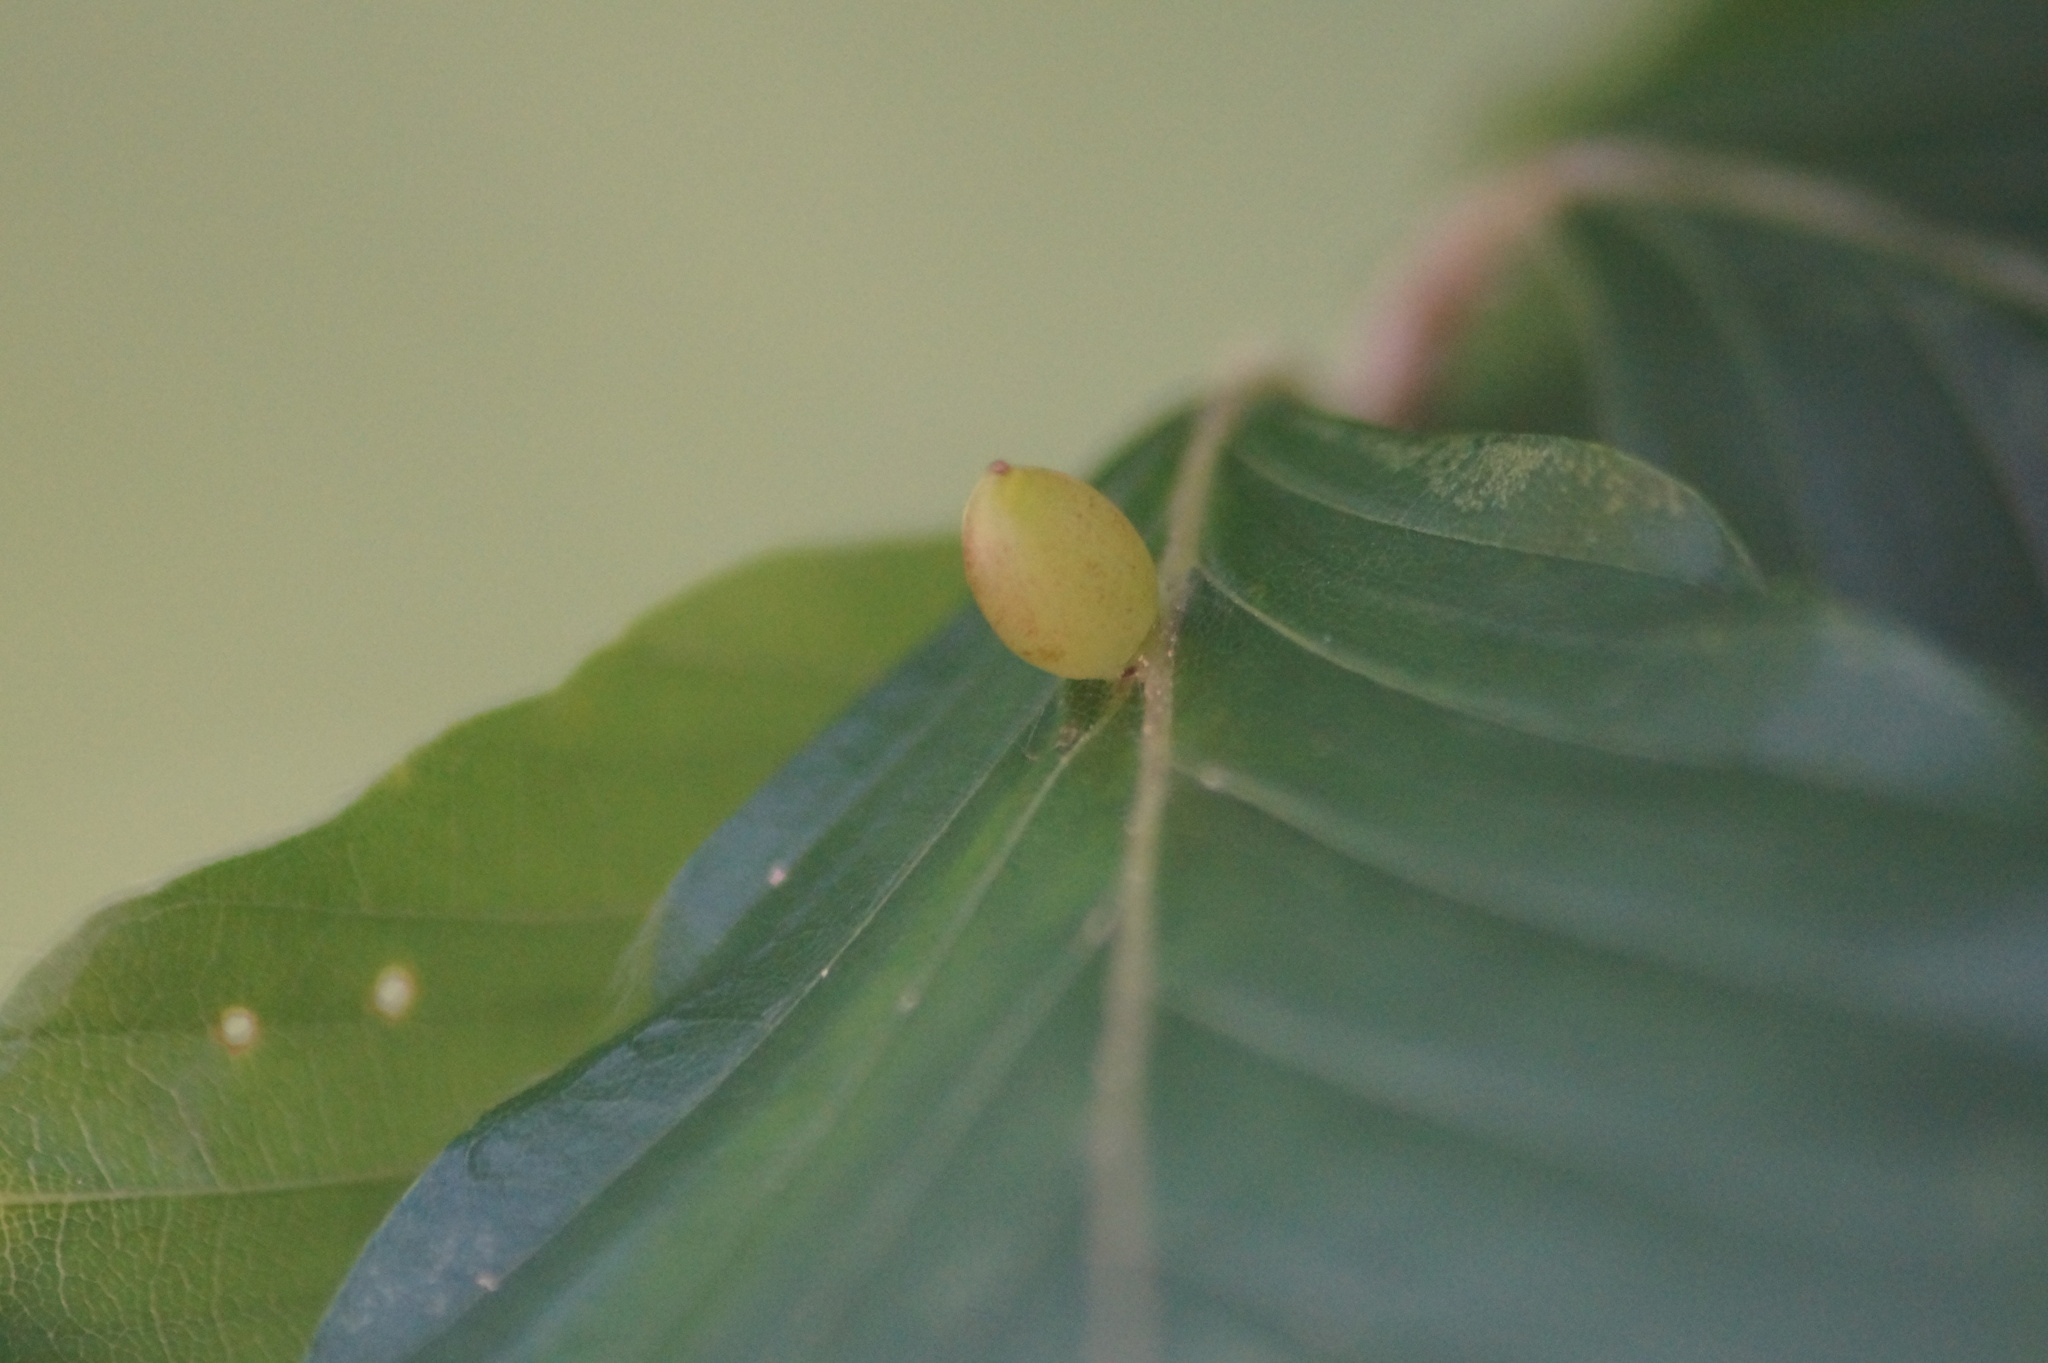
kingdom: Animalia
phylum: Arthropoda
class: Insecta
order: Diptera
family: Cecidomyiidae
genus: Mikiola
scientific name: Mikiola fagi
